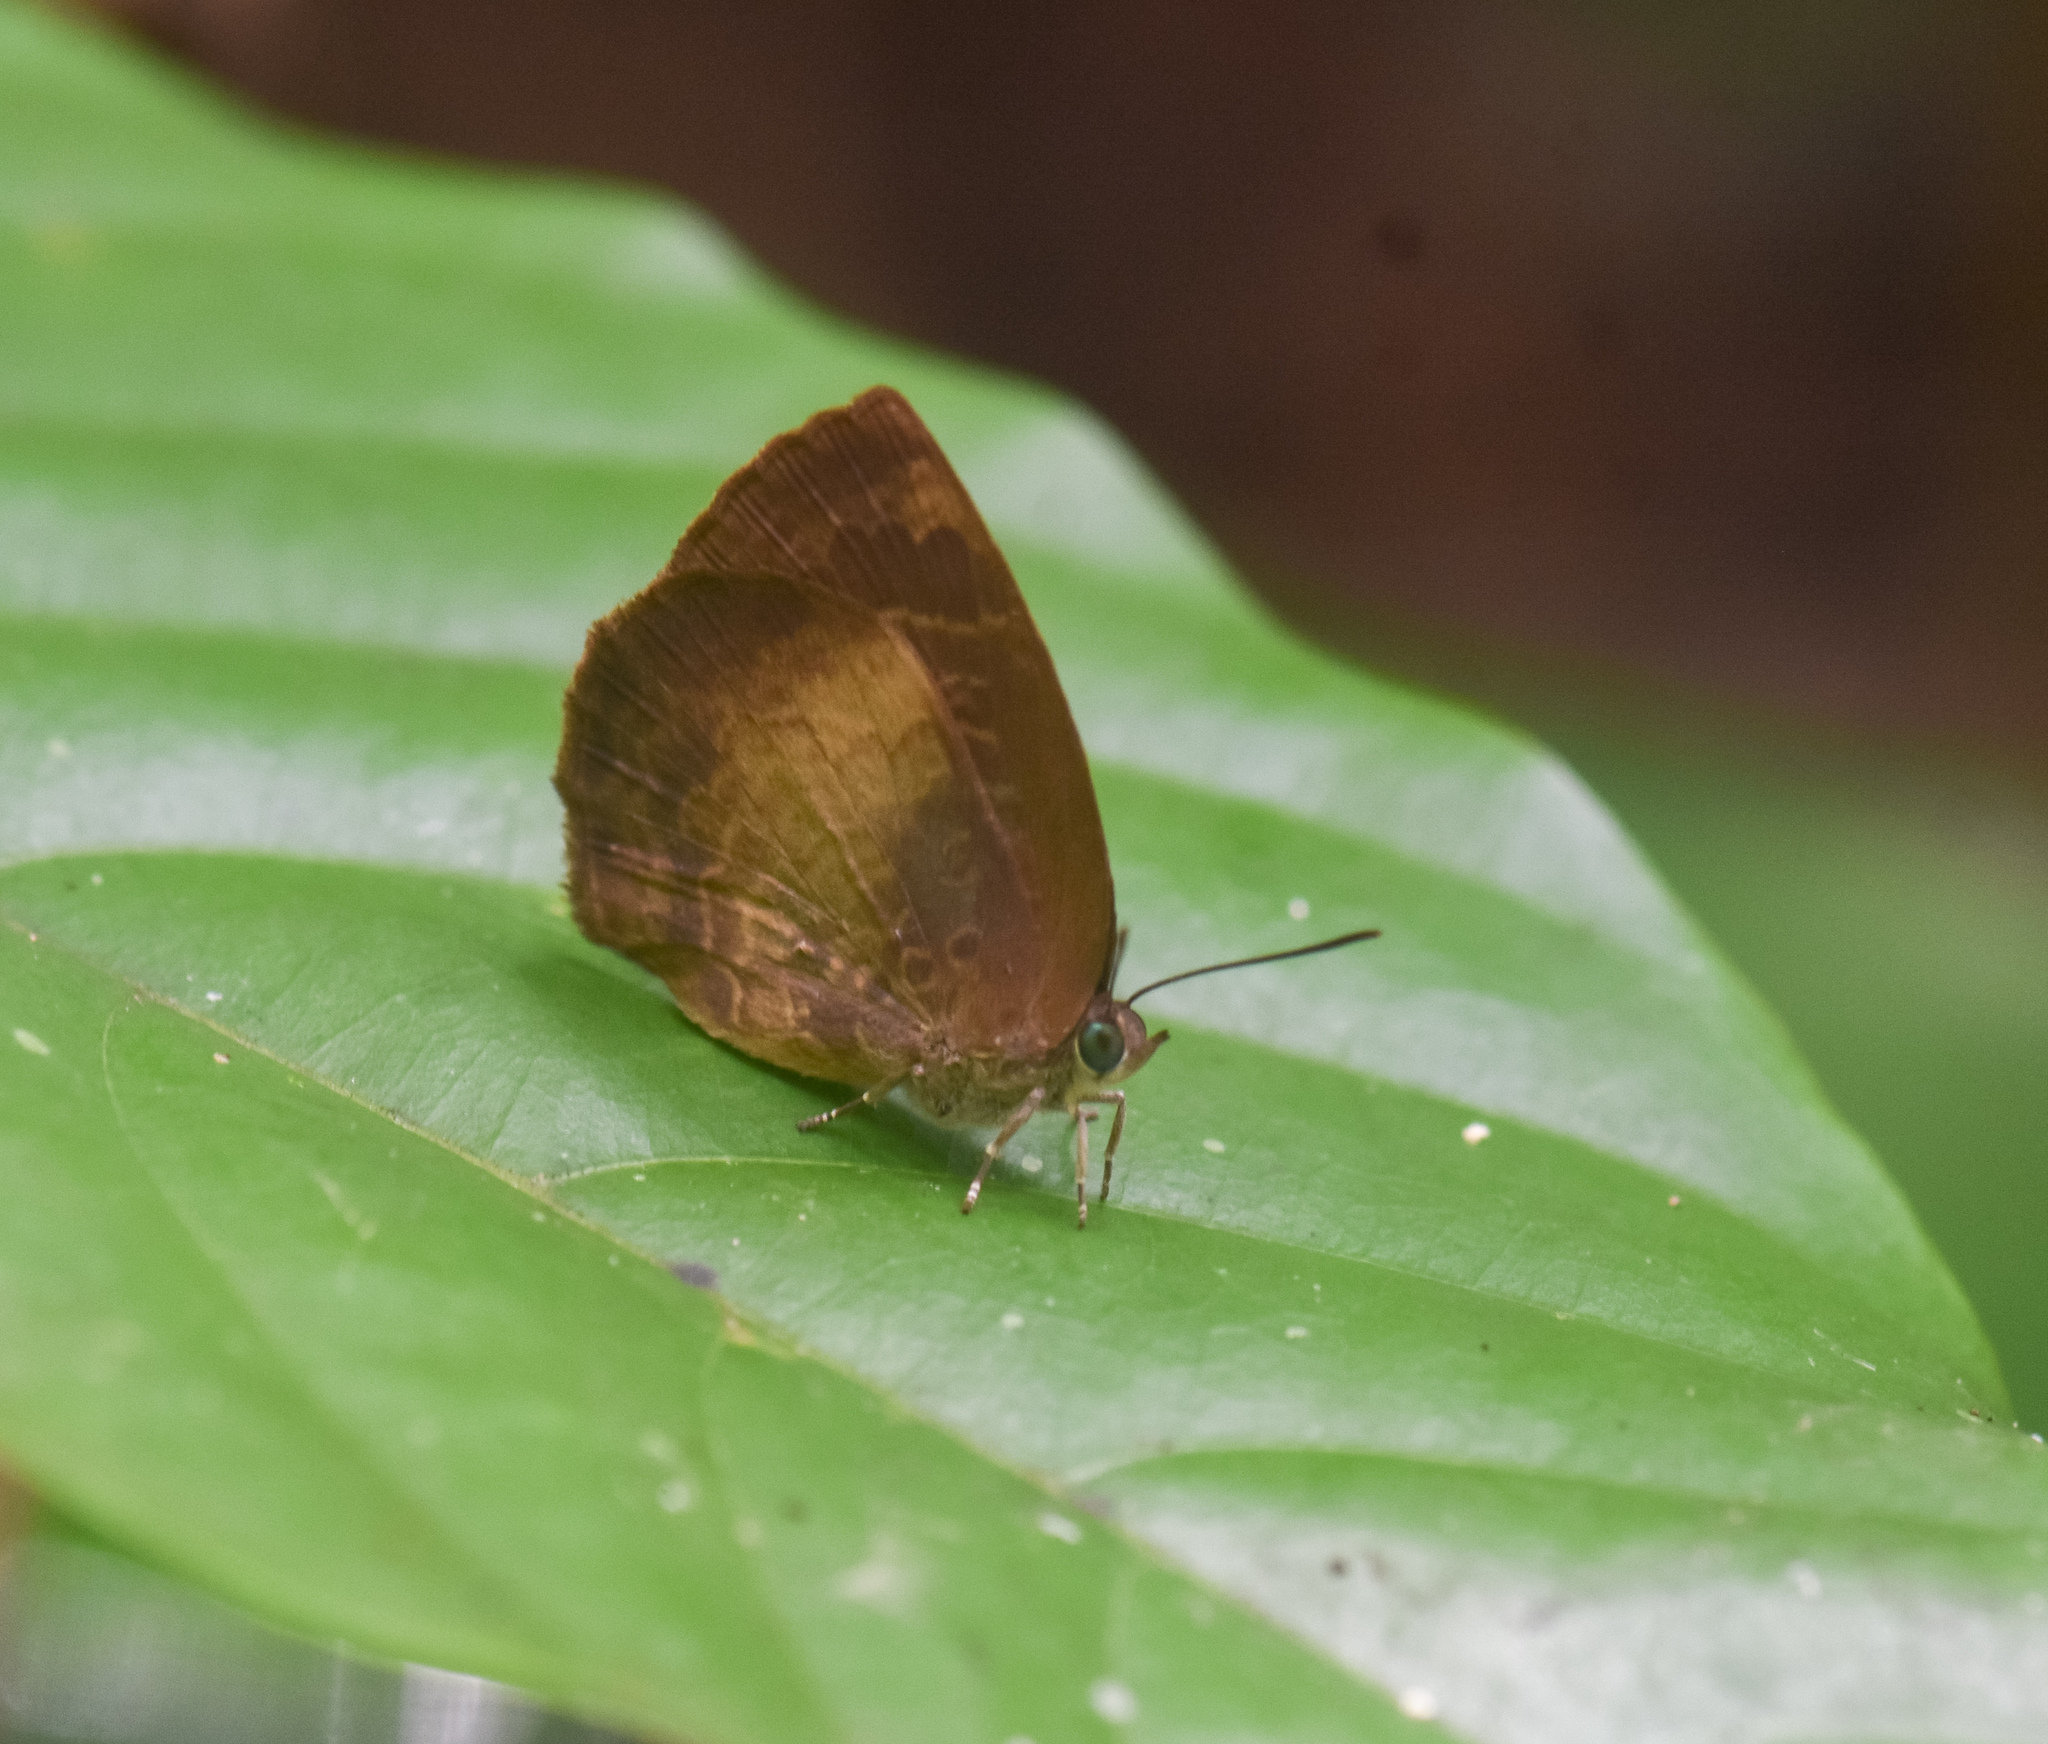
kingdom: Animalia
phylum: Arthropoda
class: Insecta
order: Lepidoptera
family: Lycaenidae
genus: Arhopala
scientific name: Arhopala perimuta
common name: Yellowdisc oakblue
